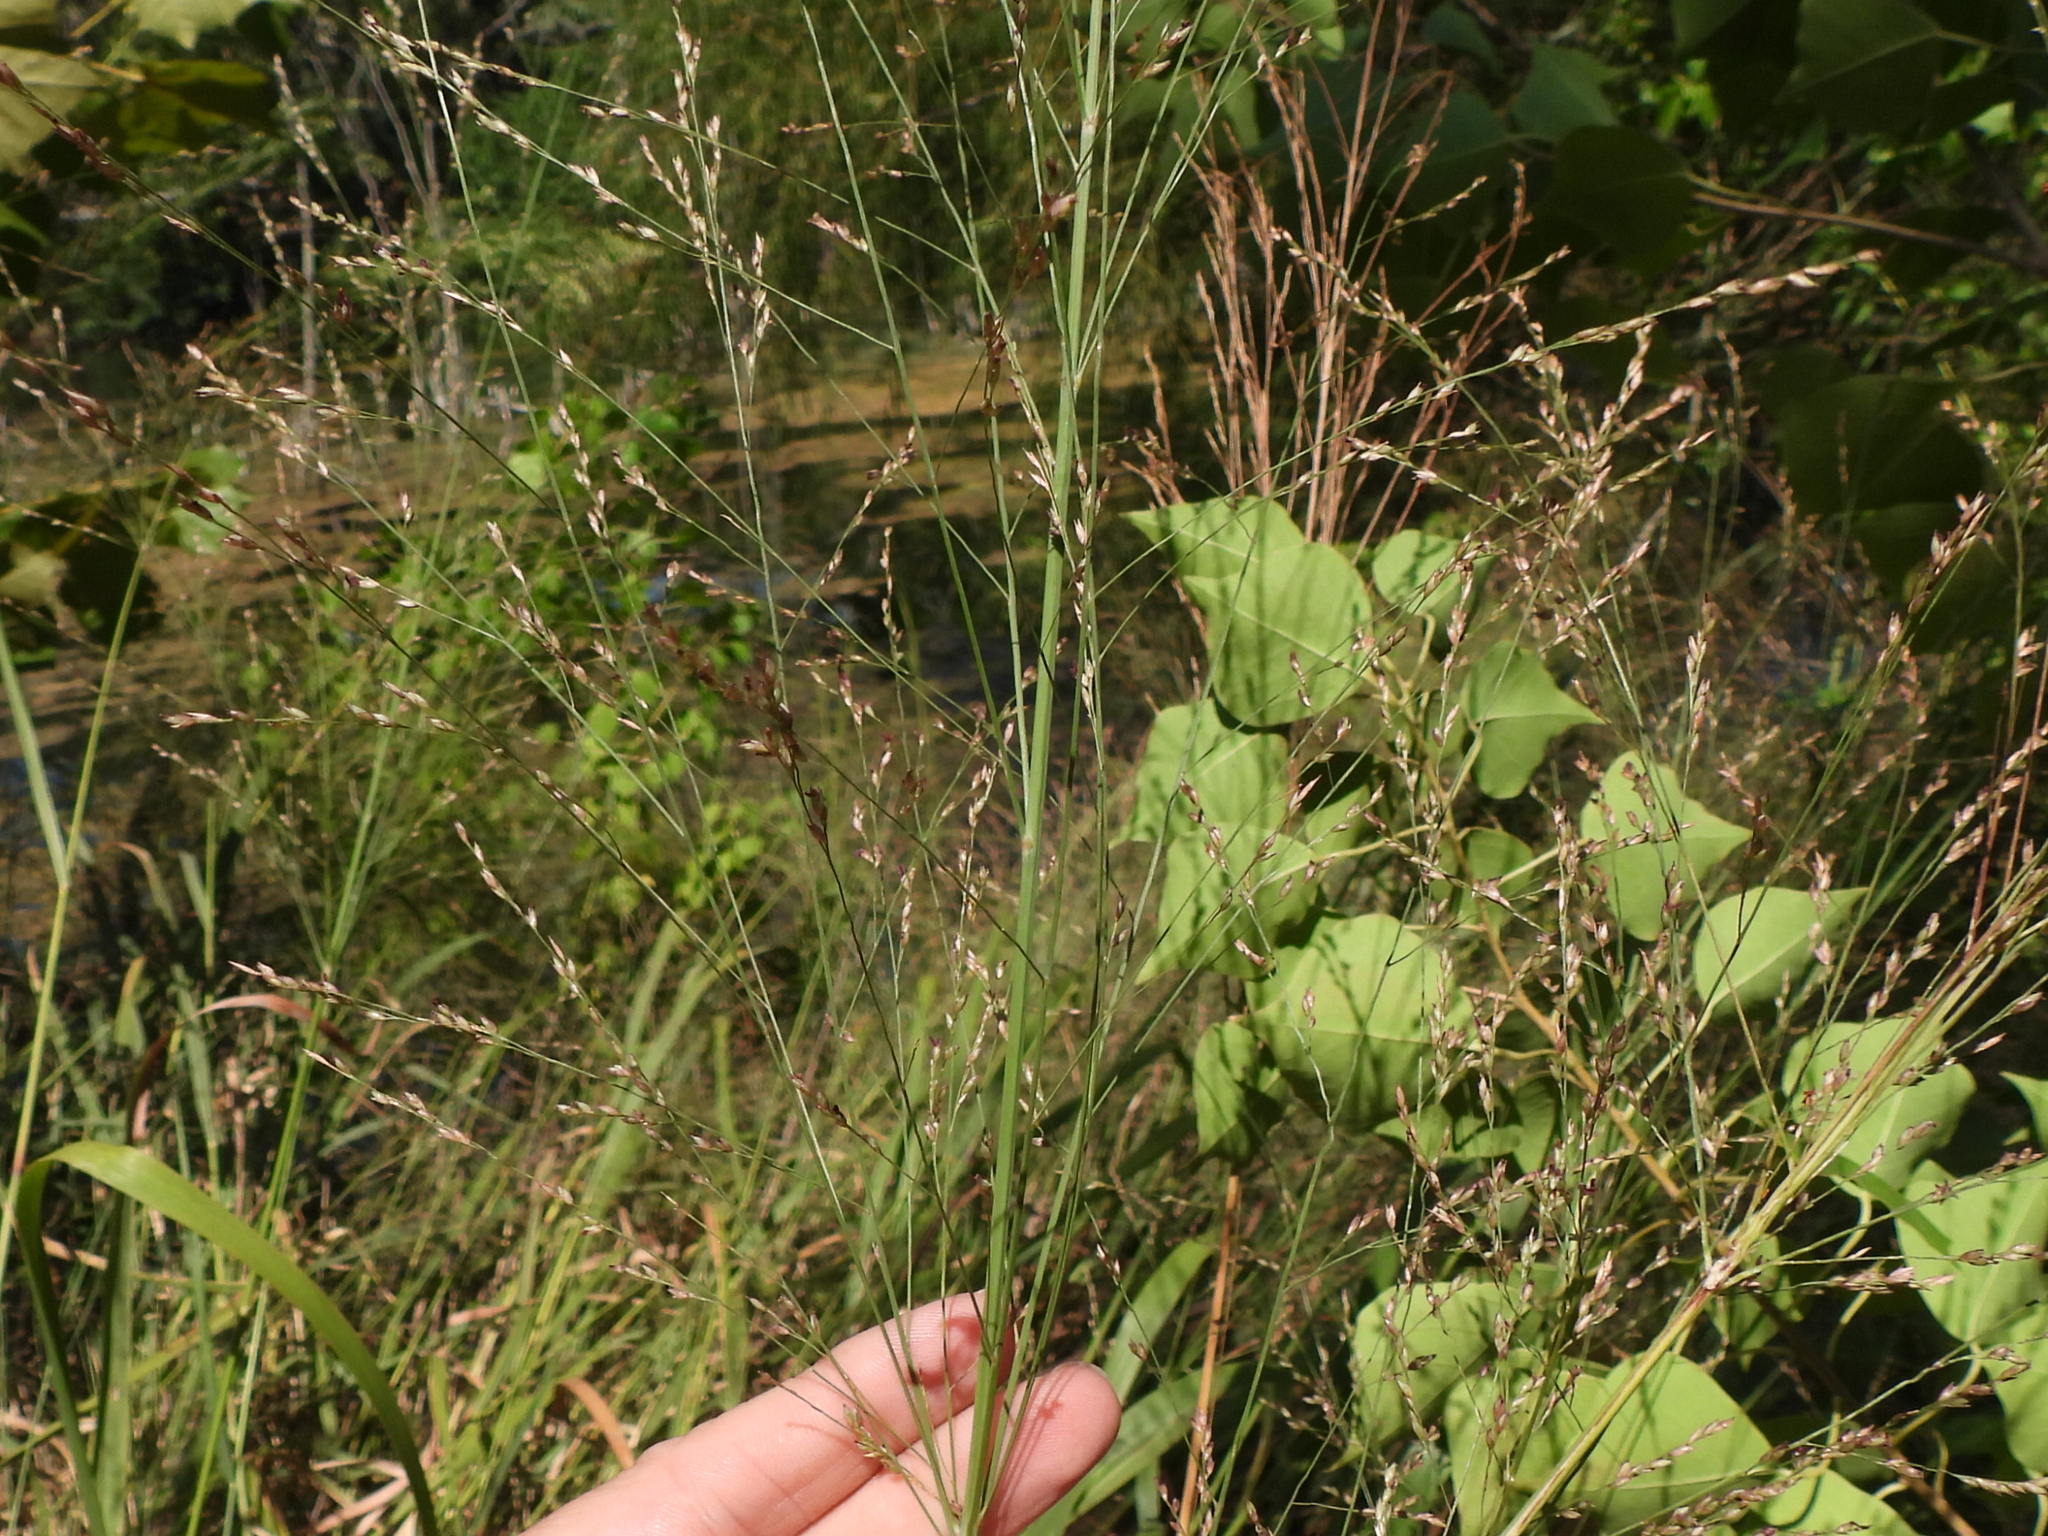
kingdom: Plantae
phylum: Tracheophyta
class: Liliopsida
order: Poales
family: Poaceae
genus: Panicum
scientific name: Panicum virgatum
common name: Switchgrass
